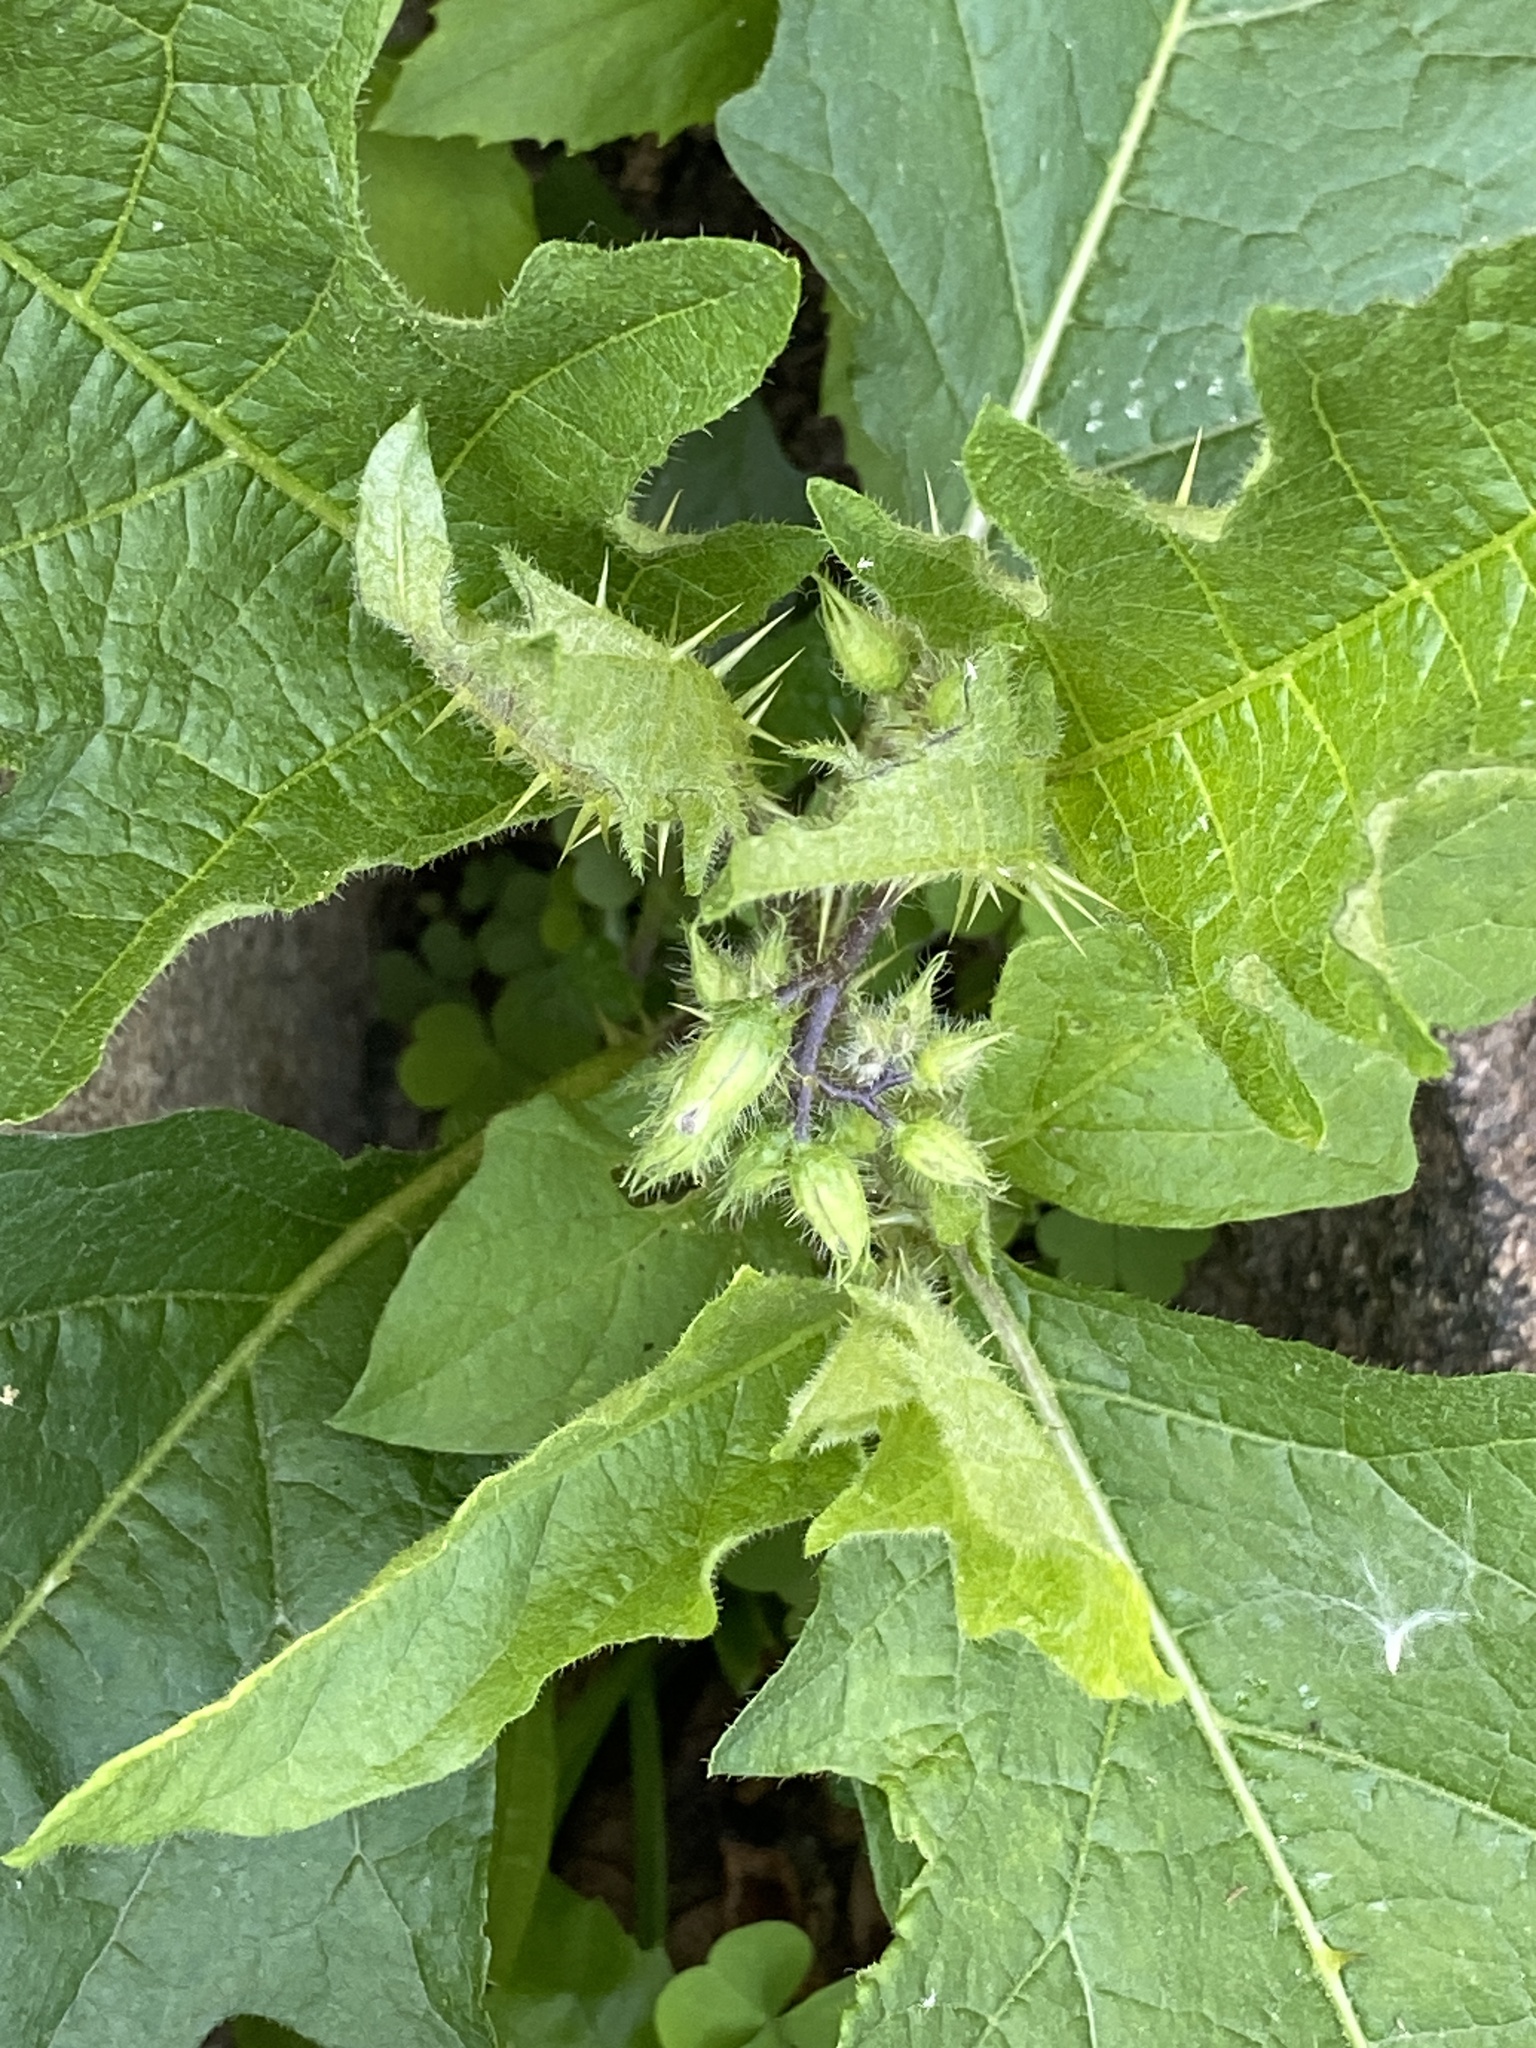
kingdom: Plantae
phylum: Tracheophyta
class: Magnoliopsida
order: Solanales
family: Solanaceae
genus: Solanum
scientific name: Solanum carolinense
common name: Horse-nettle
